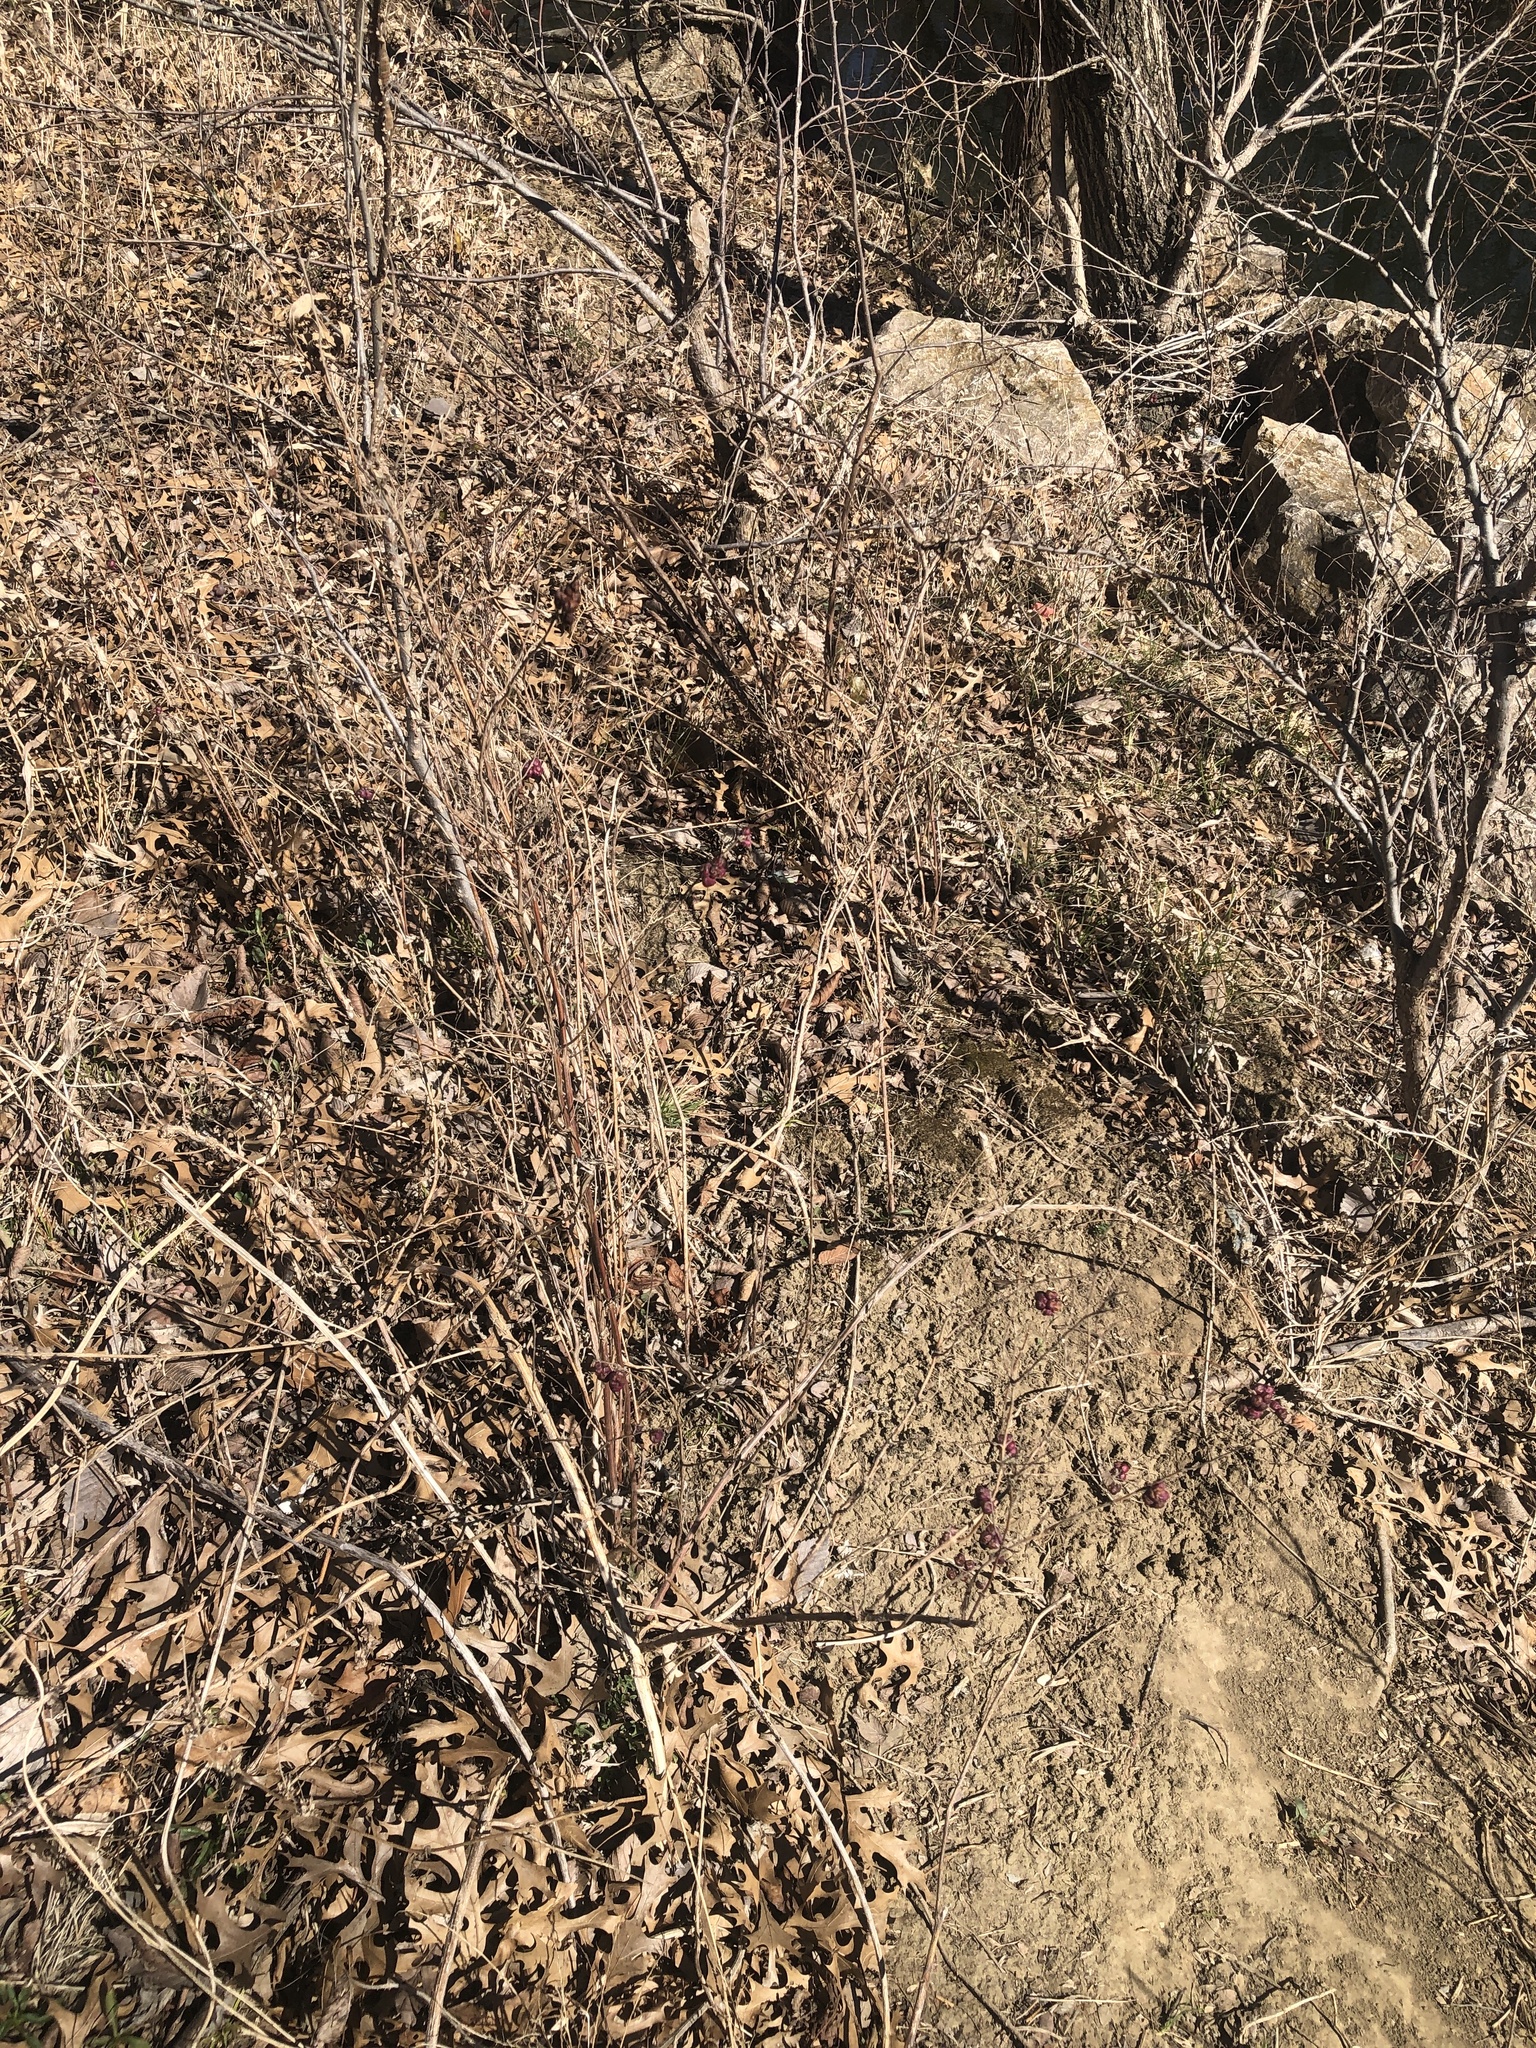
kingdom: Plantae
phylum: Tracheophyta
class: Magnoliopsida
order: Dipsacales
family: Caprifoliaceae
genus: Symphoricarpos
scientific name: Symphoricarpos orbiculatus
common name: Coralberry
